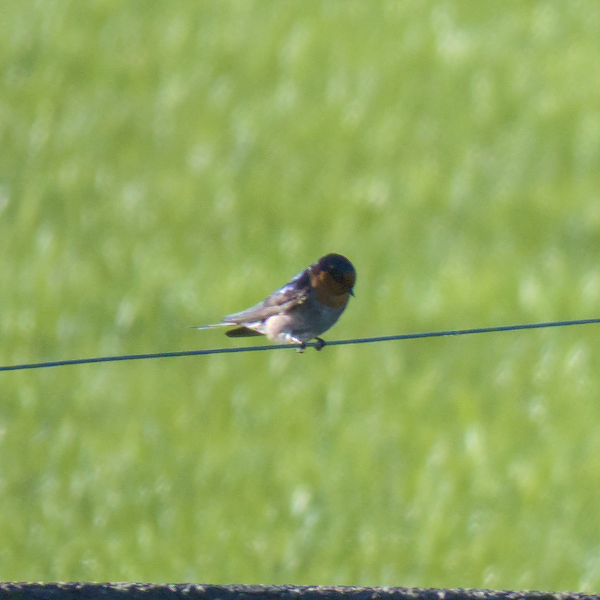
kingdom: Animalia
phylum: Chordata
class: Aves
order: Passeriformes
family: Hirundinidae
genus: Hirundo
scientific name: Hirundo neoxena
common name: Welcome swallow
